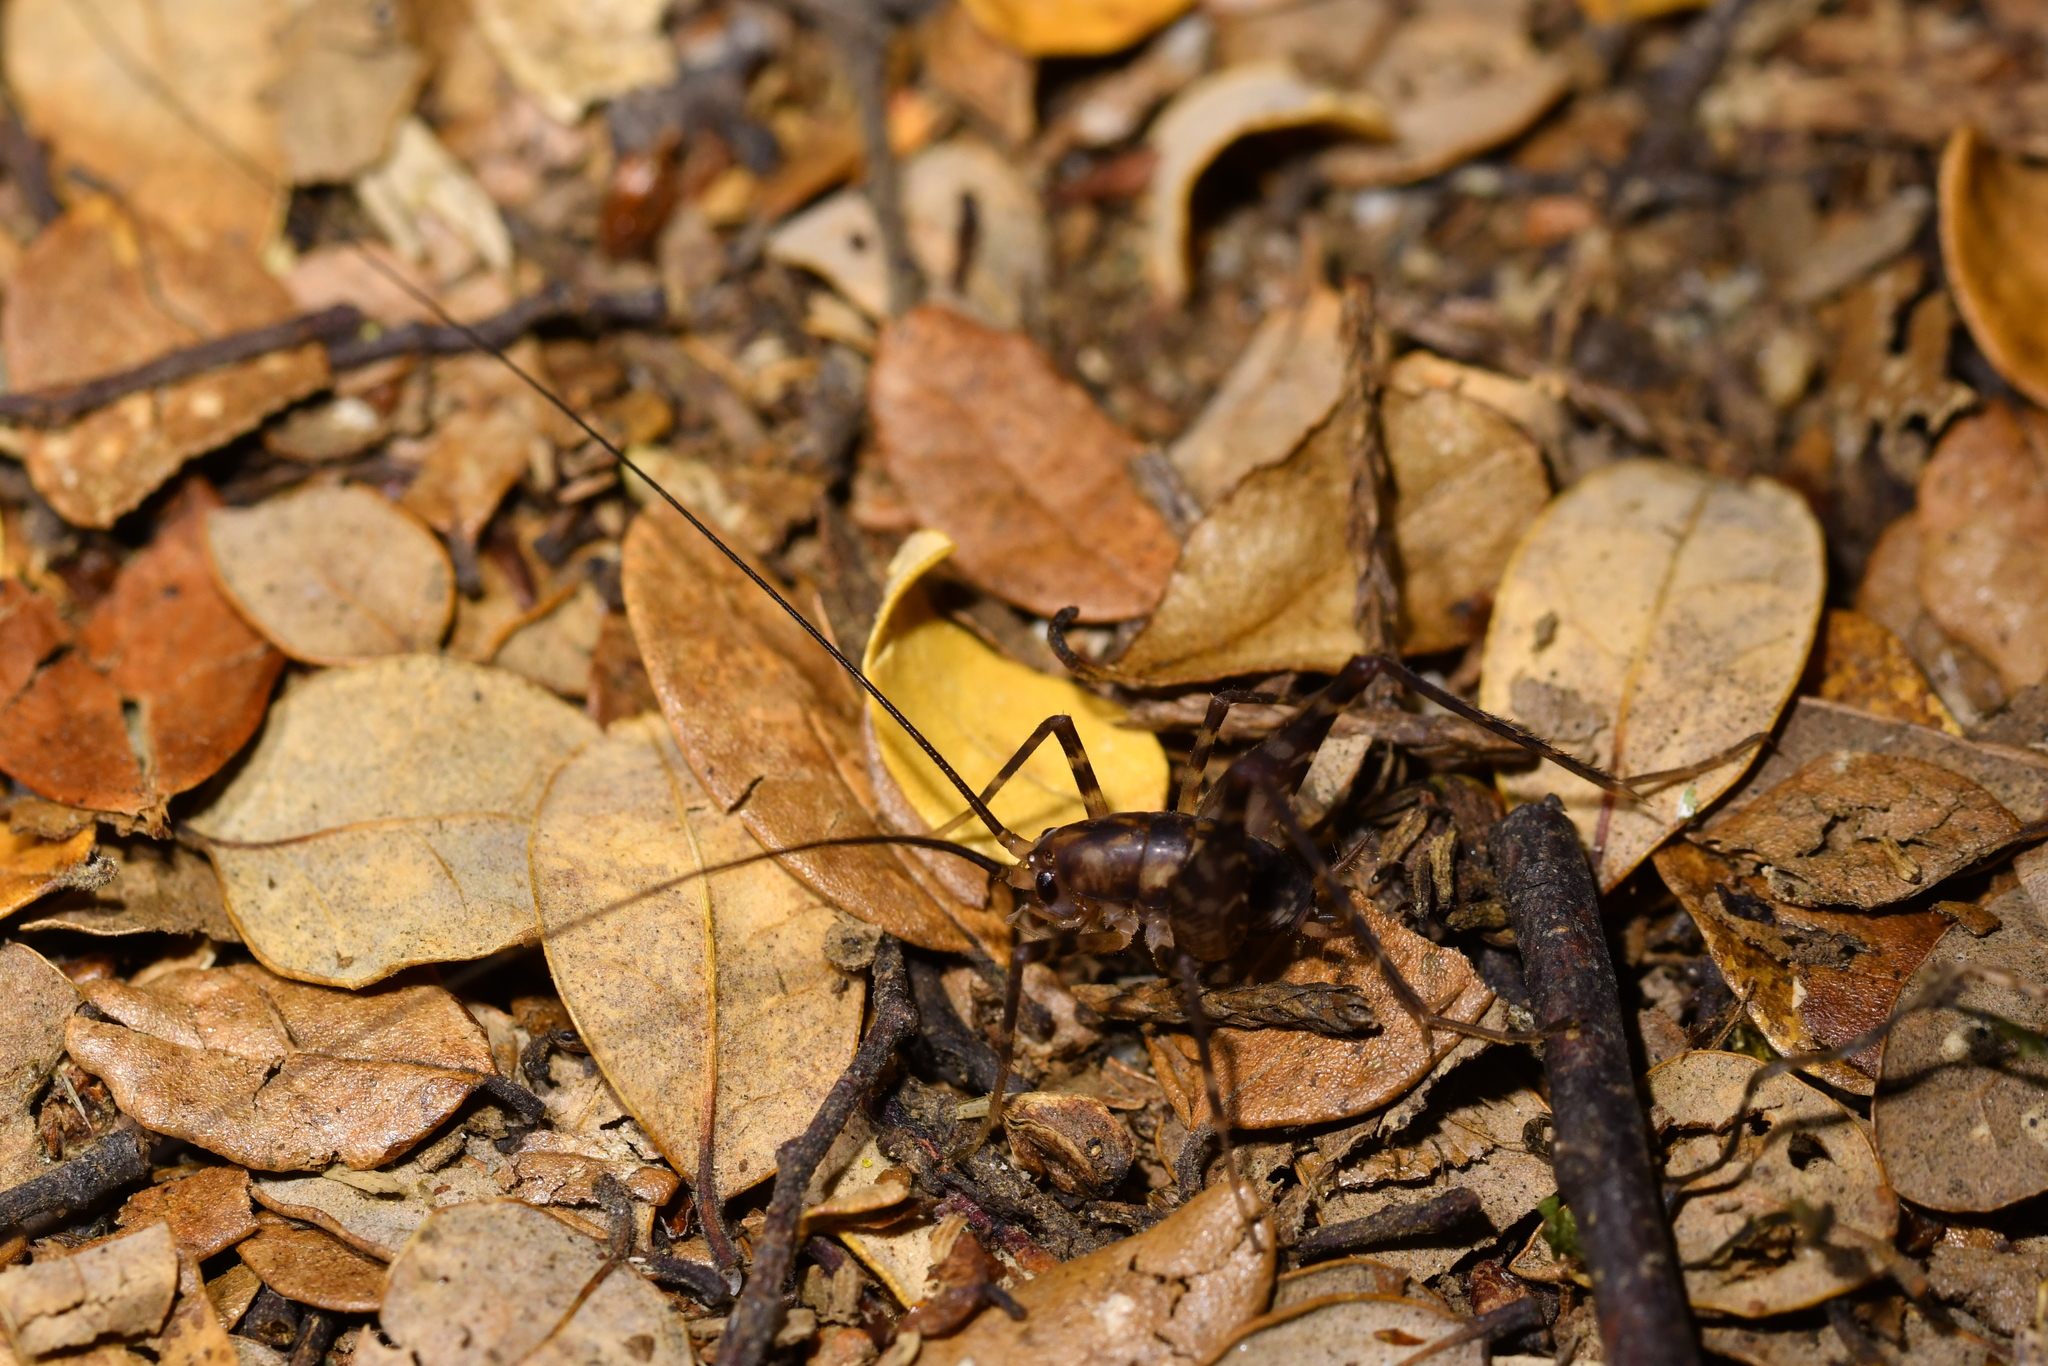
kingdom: Animalia
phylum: Arthropoda
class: Insecta
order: Orthoptera
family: Rhaphidophoridae
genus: Miotopus
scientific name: Miotopus richardsae
